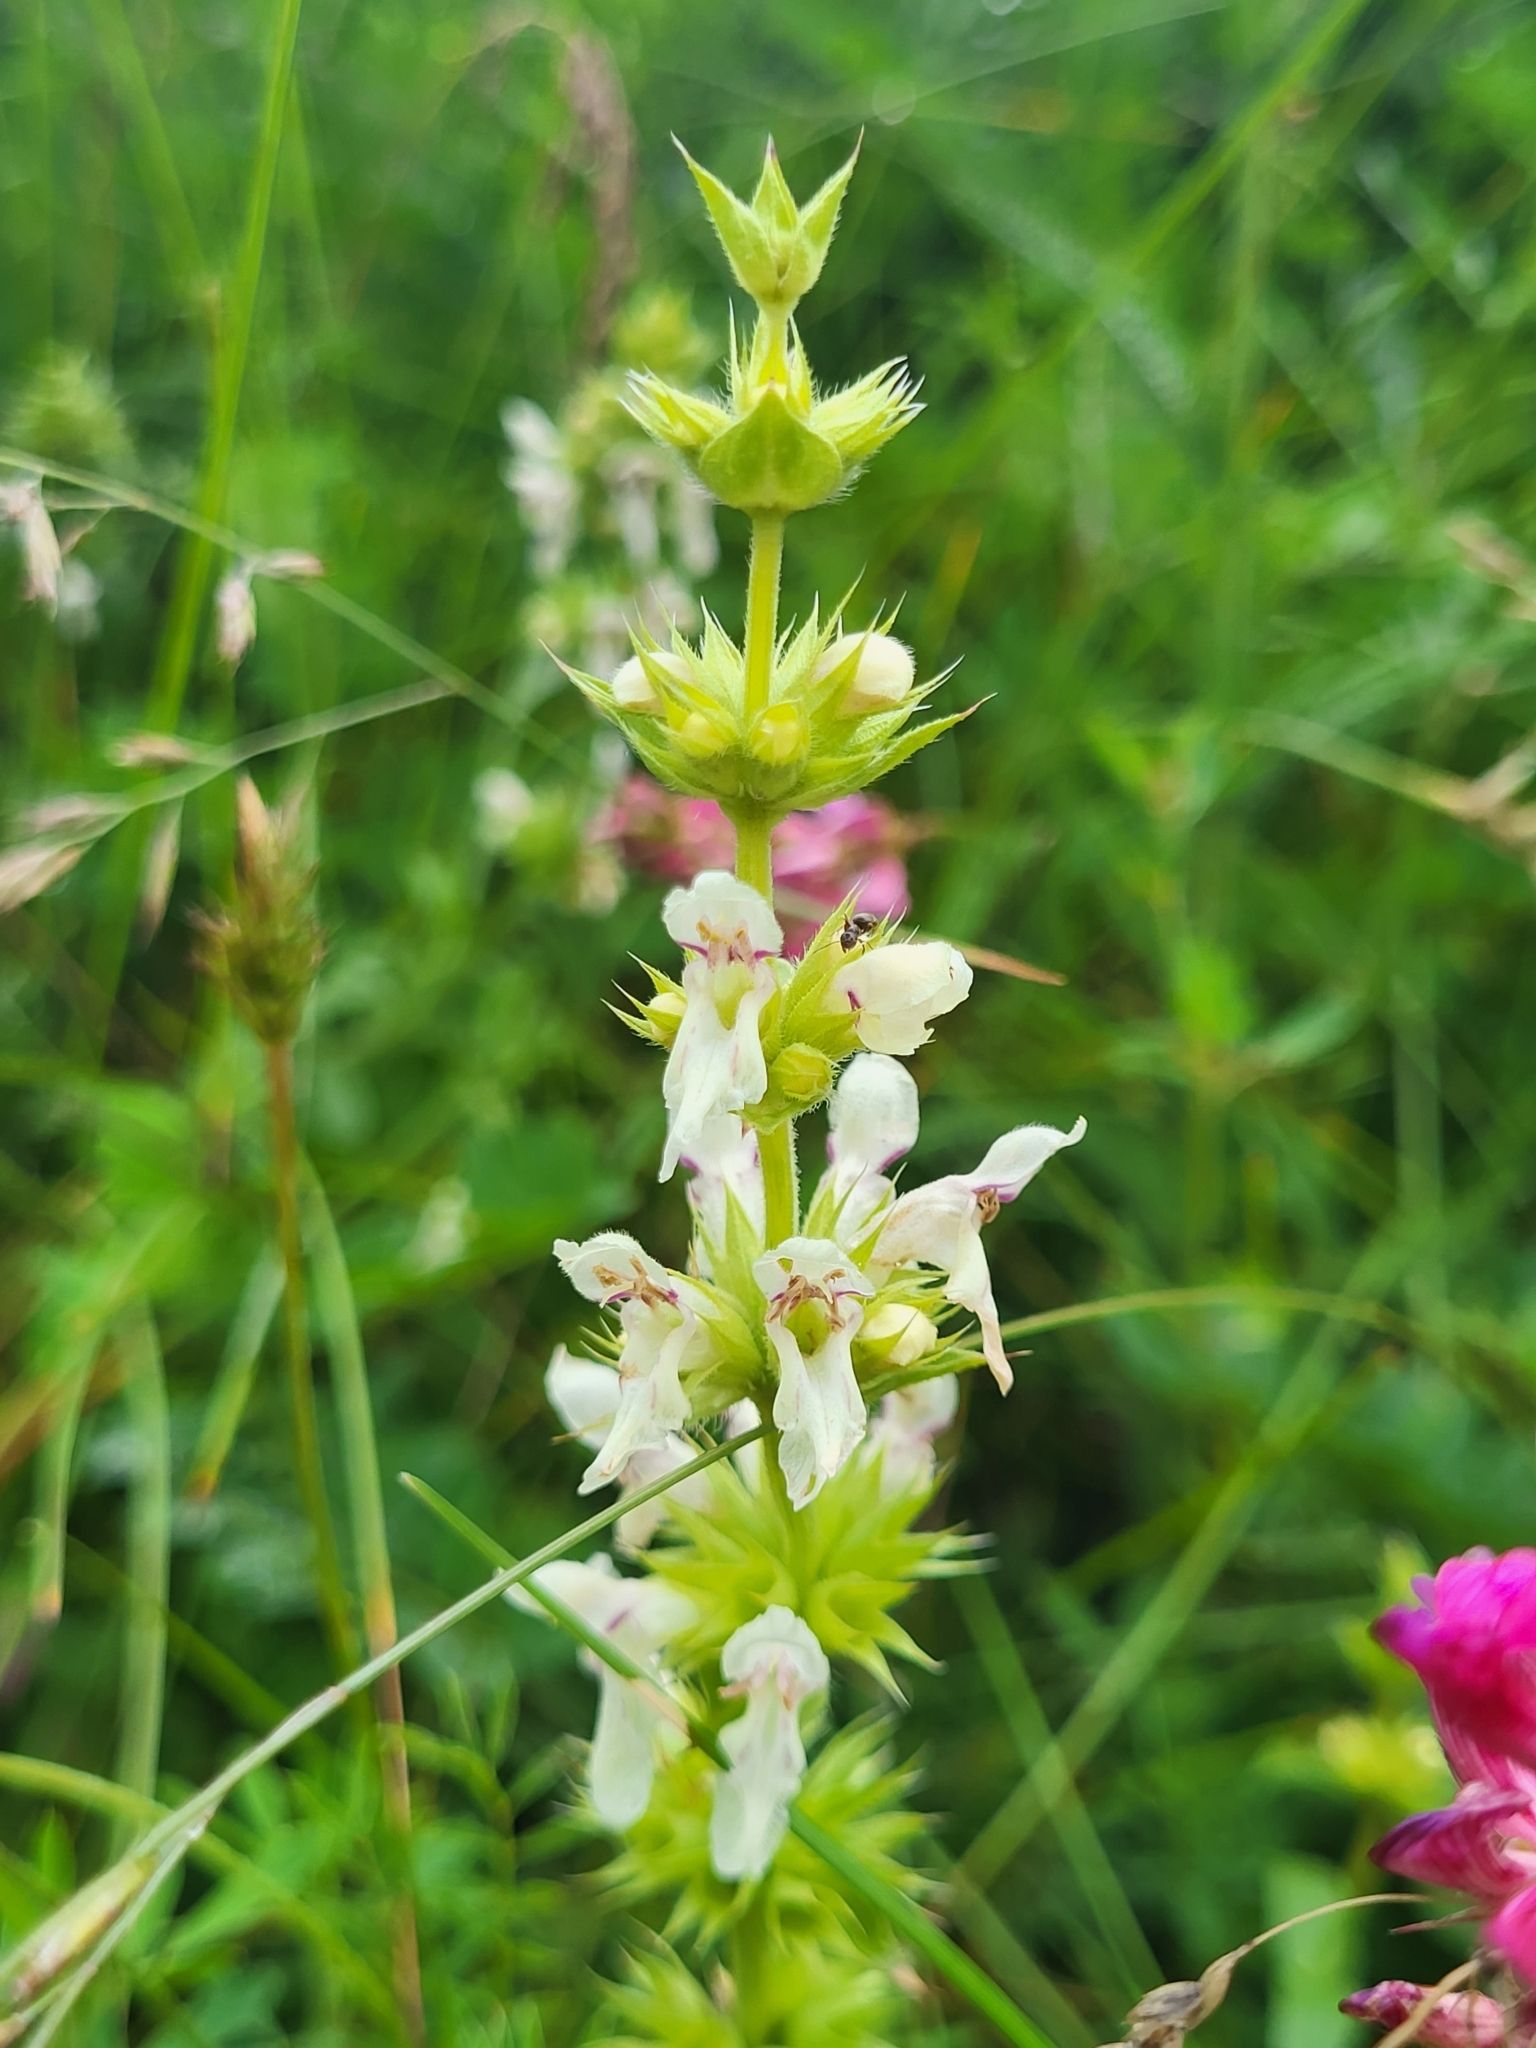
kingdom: Plantae
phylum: Tracheophyta
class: Magnoliopsida
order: Lamiales
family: Lamiaceae
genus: Stachys
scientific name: Stachys atherocalyx
